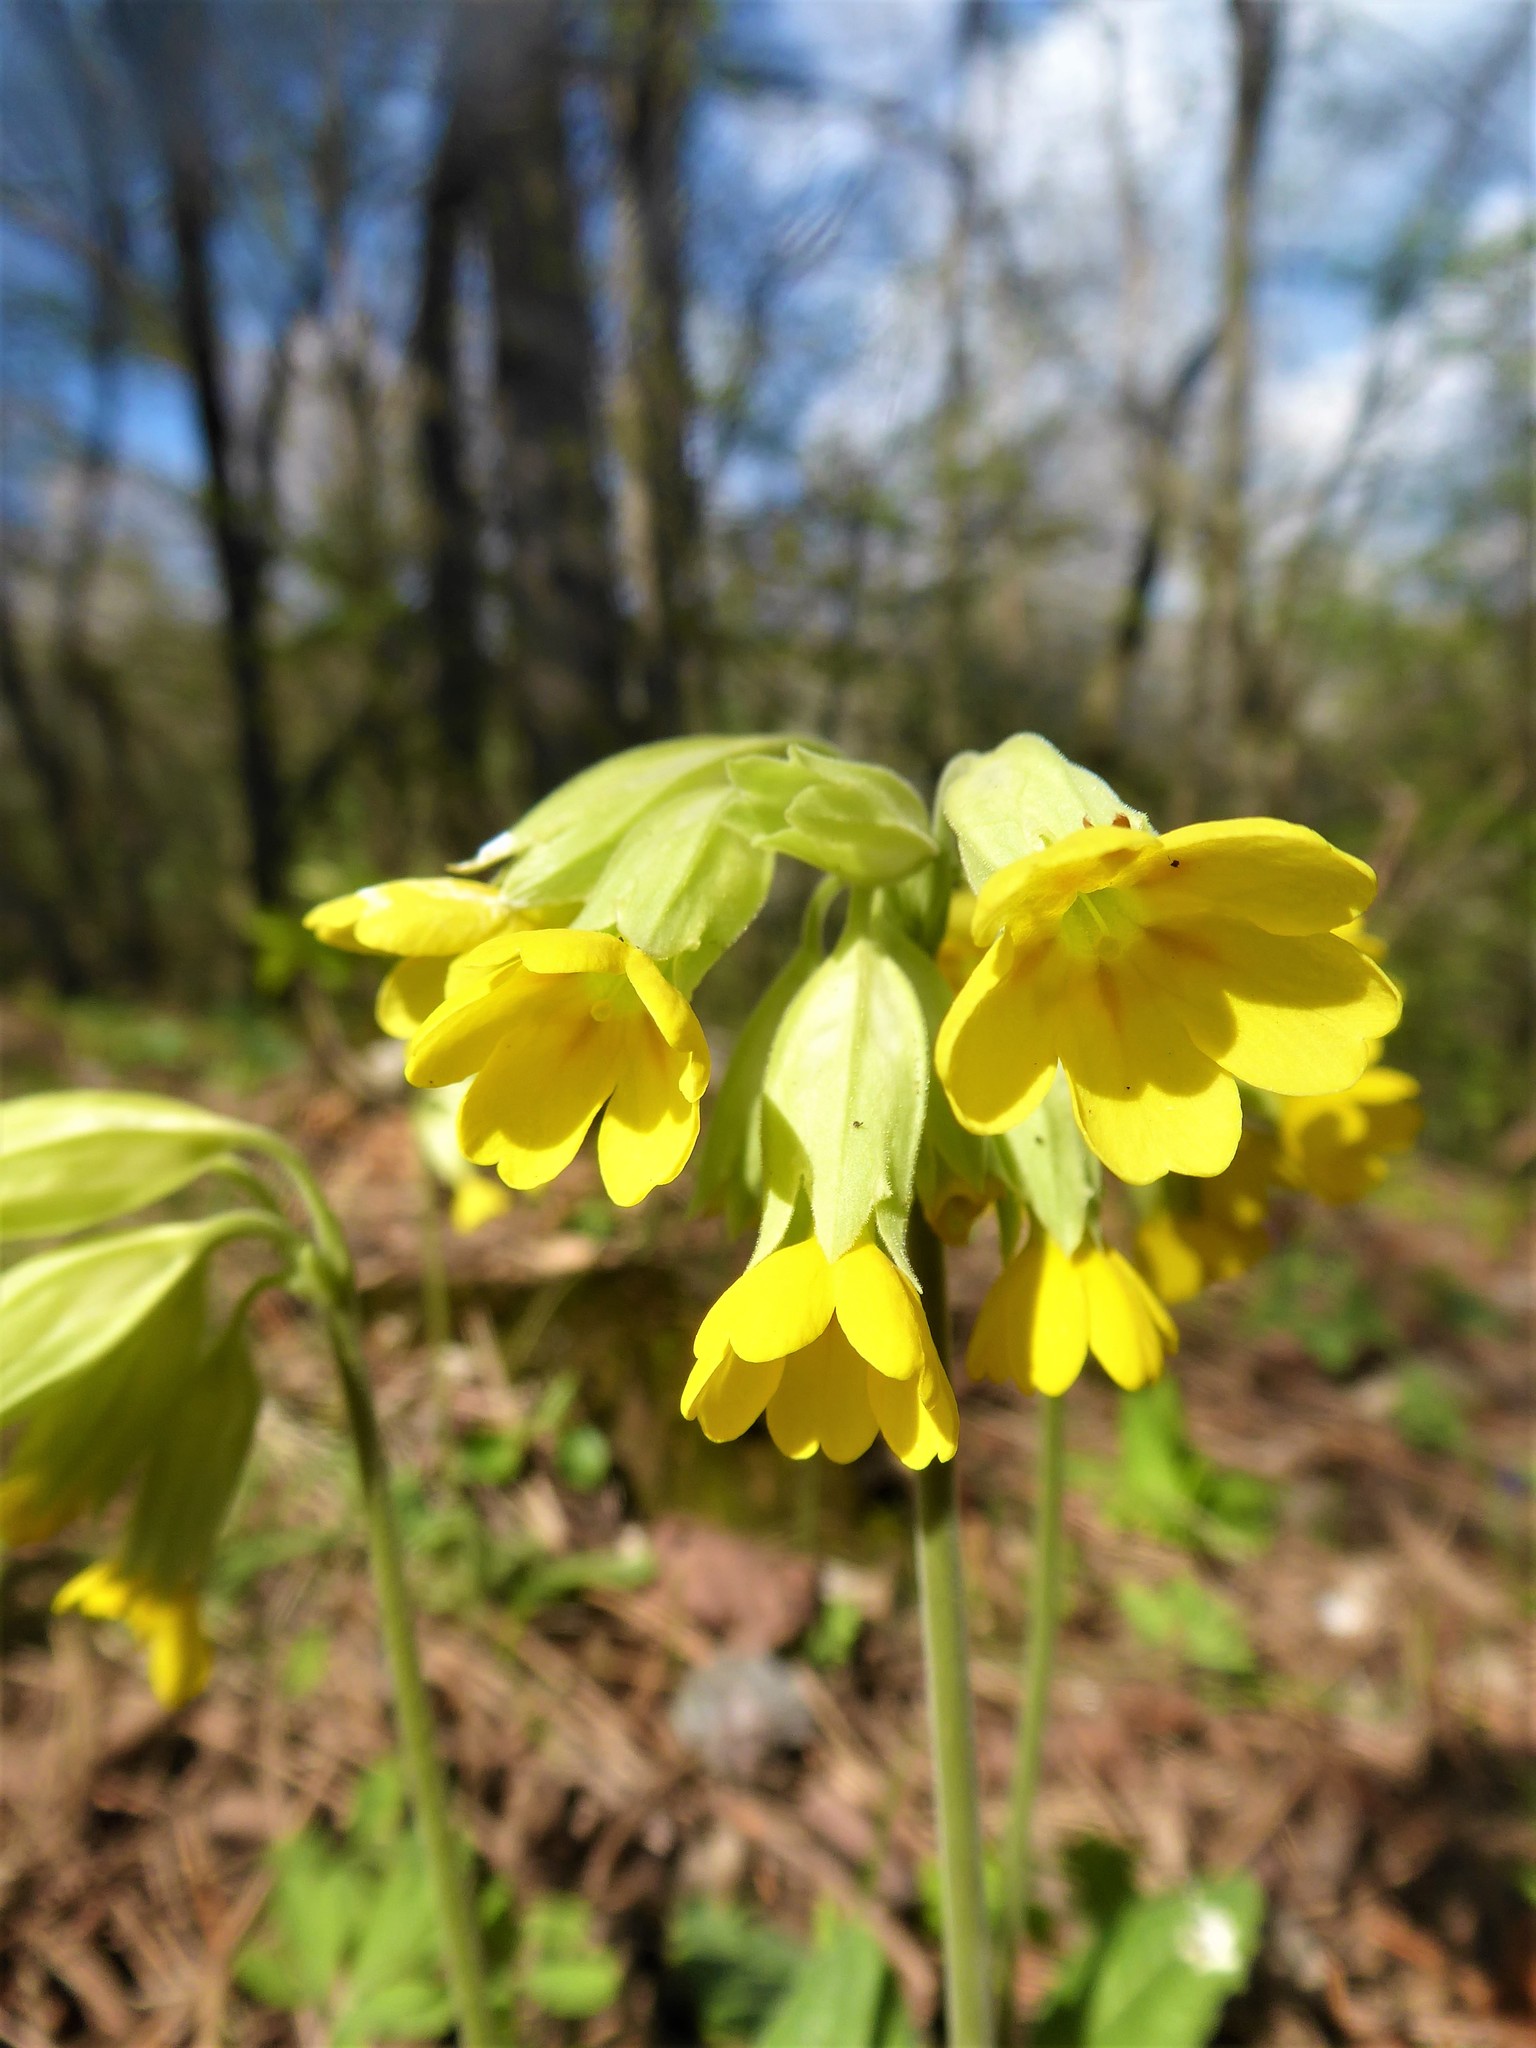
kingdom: Plantae
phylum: Tracheophyta
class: Magnoliopsida
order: Ericales
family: Primulaceae
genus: Primula
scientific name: Primula veris
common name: Cowslip
